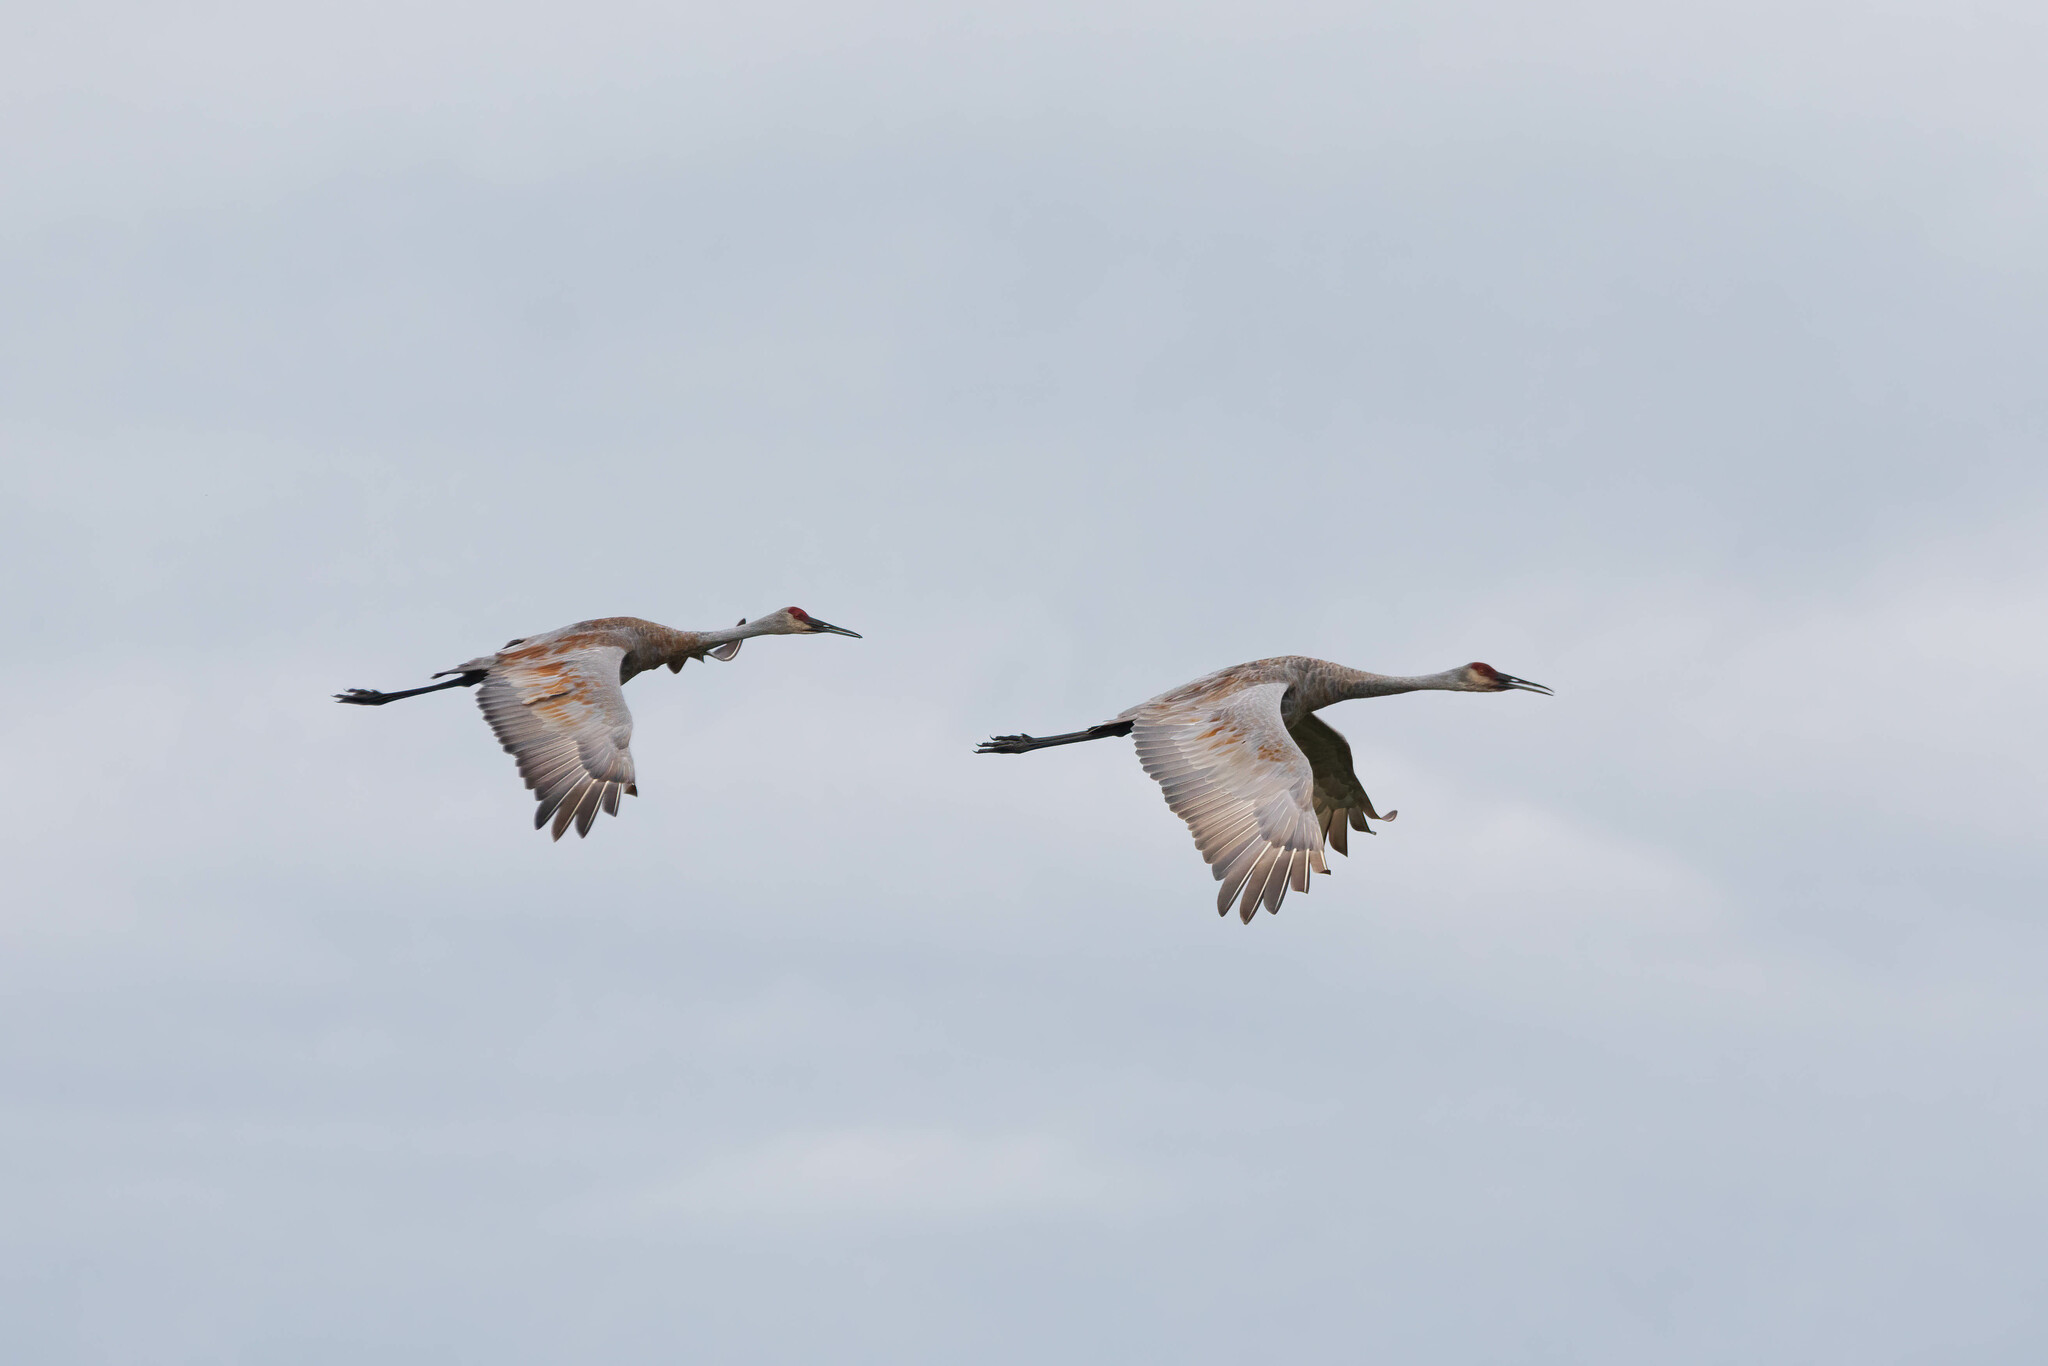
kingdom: Animalia
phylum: Chordata
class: Aves
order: Gruiformes
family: Gruidae
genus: Grus
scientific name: Grus canadensis
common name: Sandhill crane
